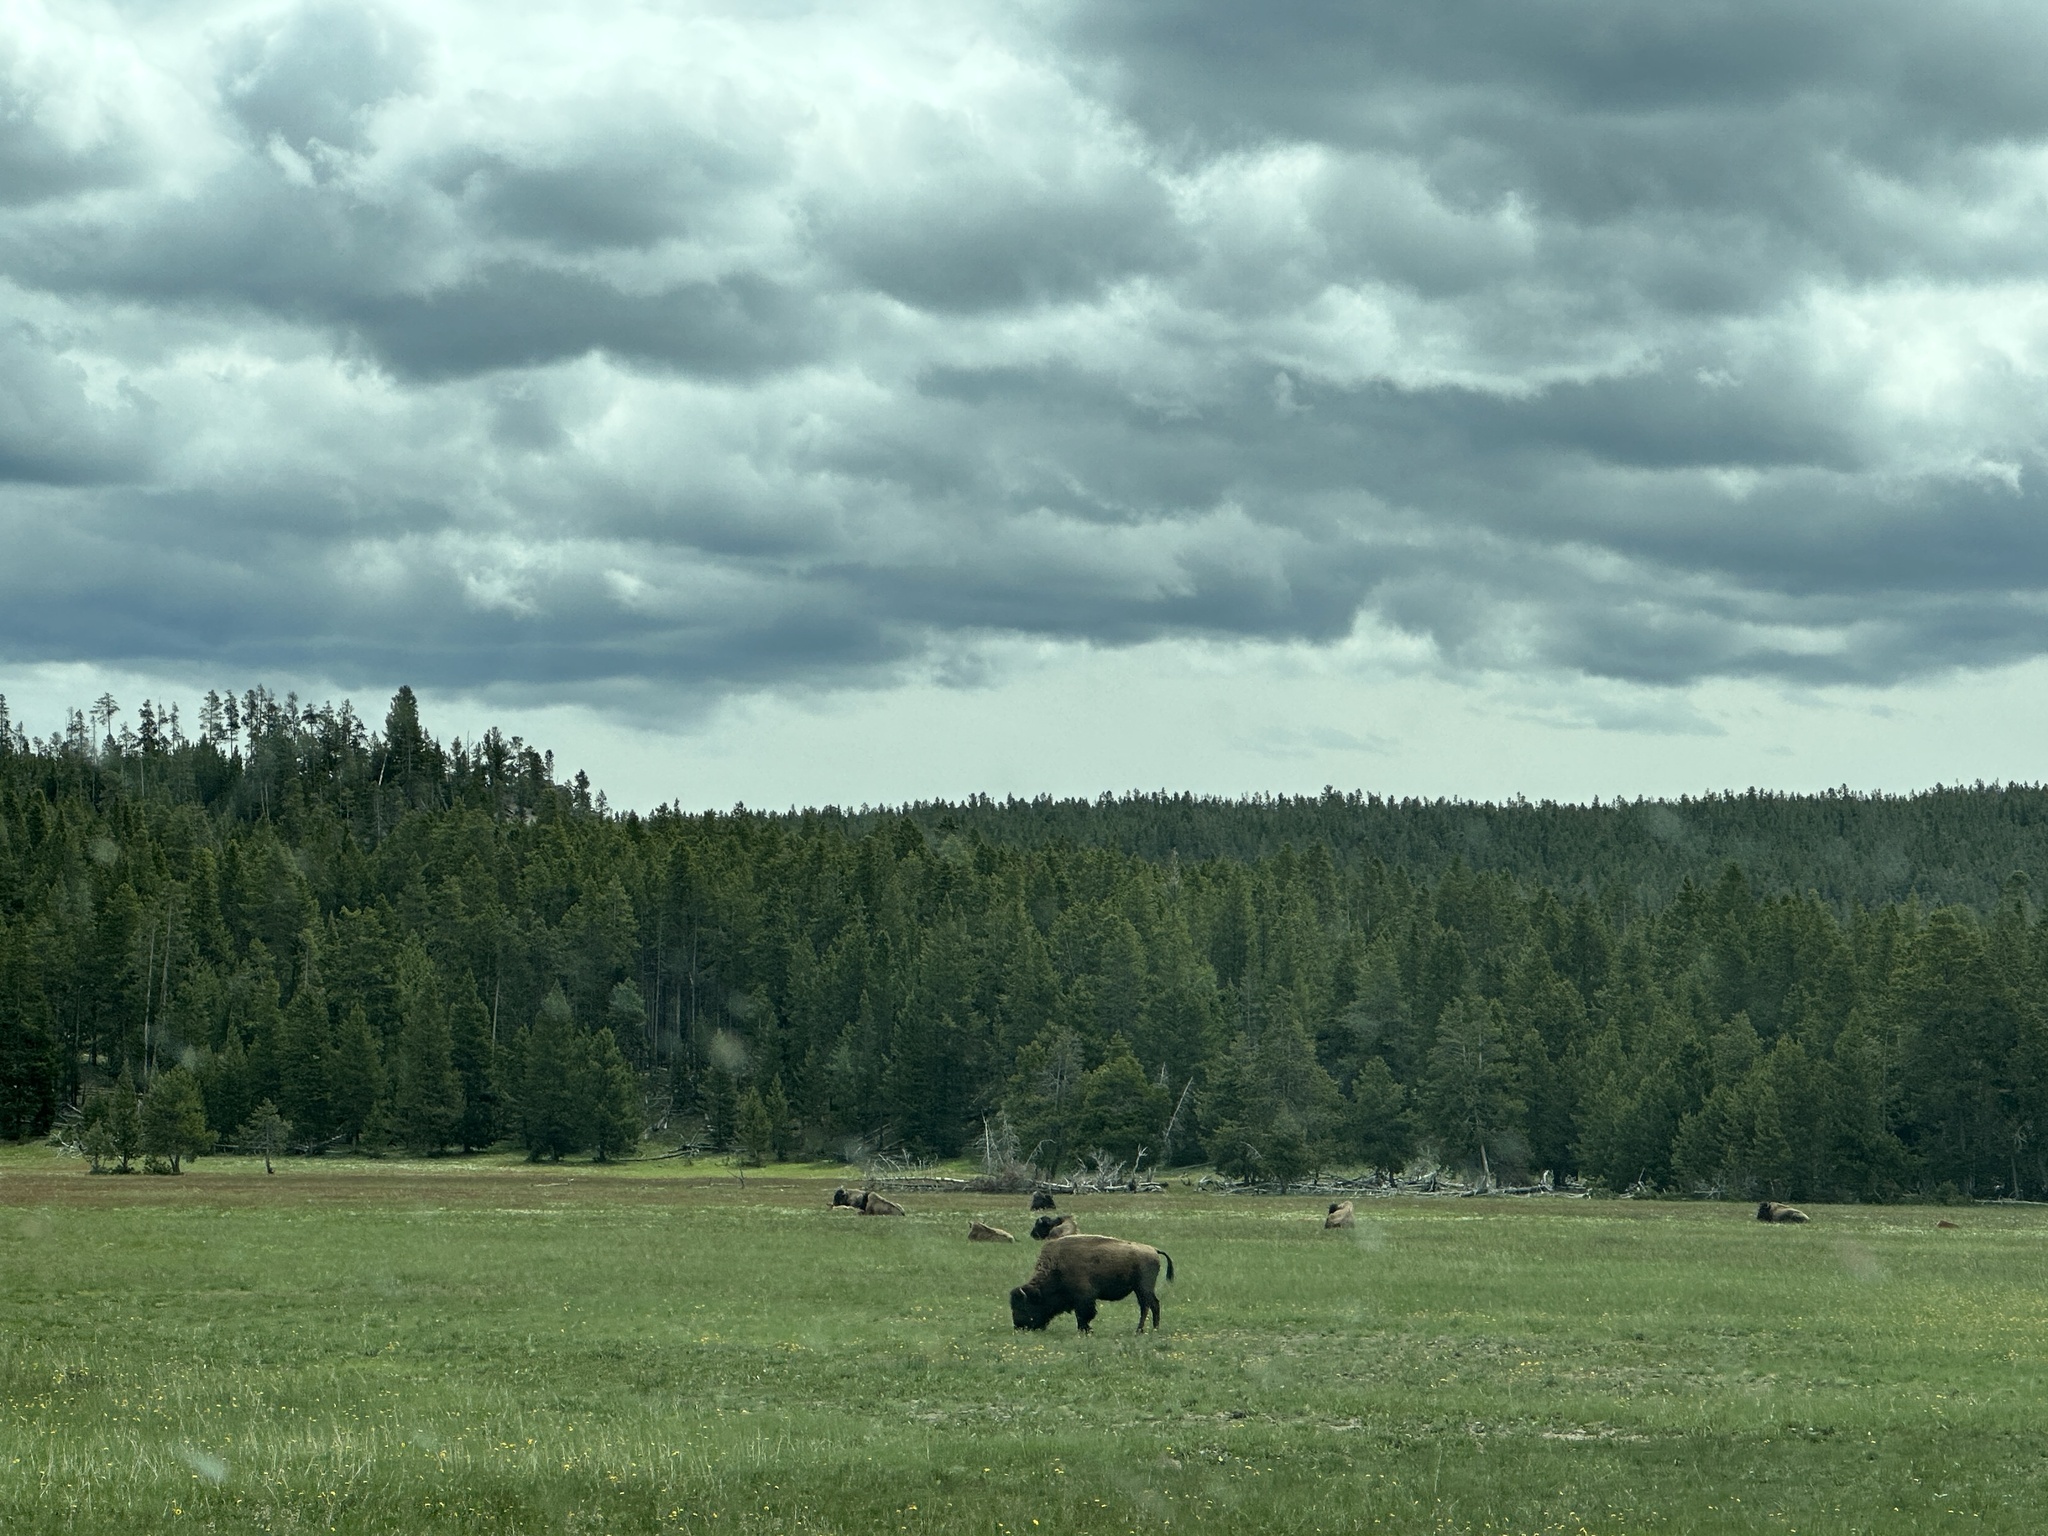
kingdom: Animalia
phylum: Chordata
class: Mammalia
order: Artiodactyla
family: Bovidae
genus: Bison
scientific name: Bison bison
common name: American bison
